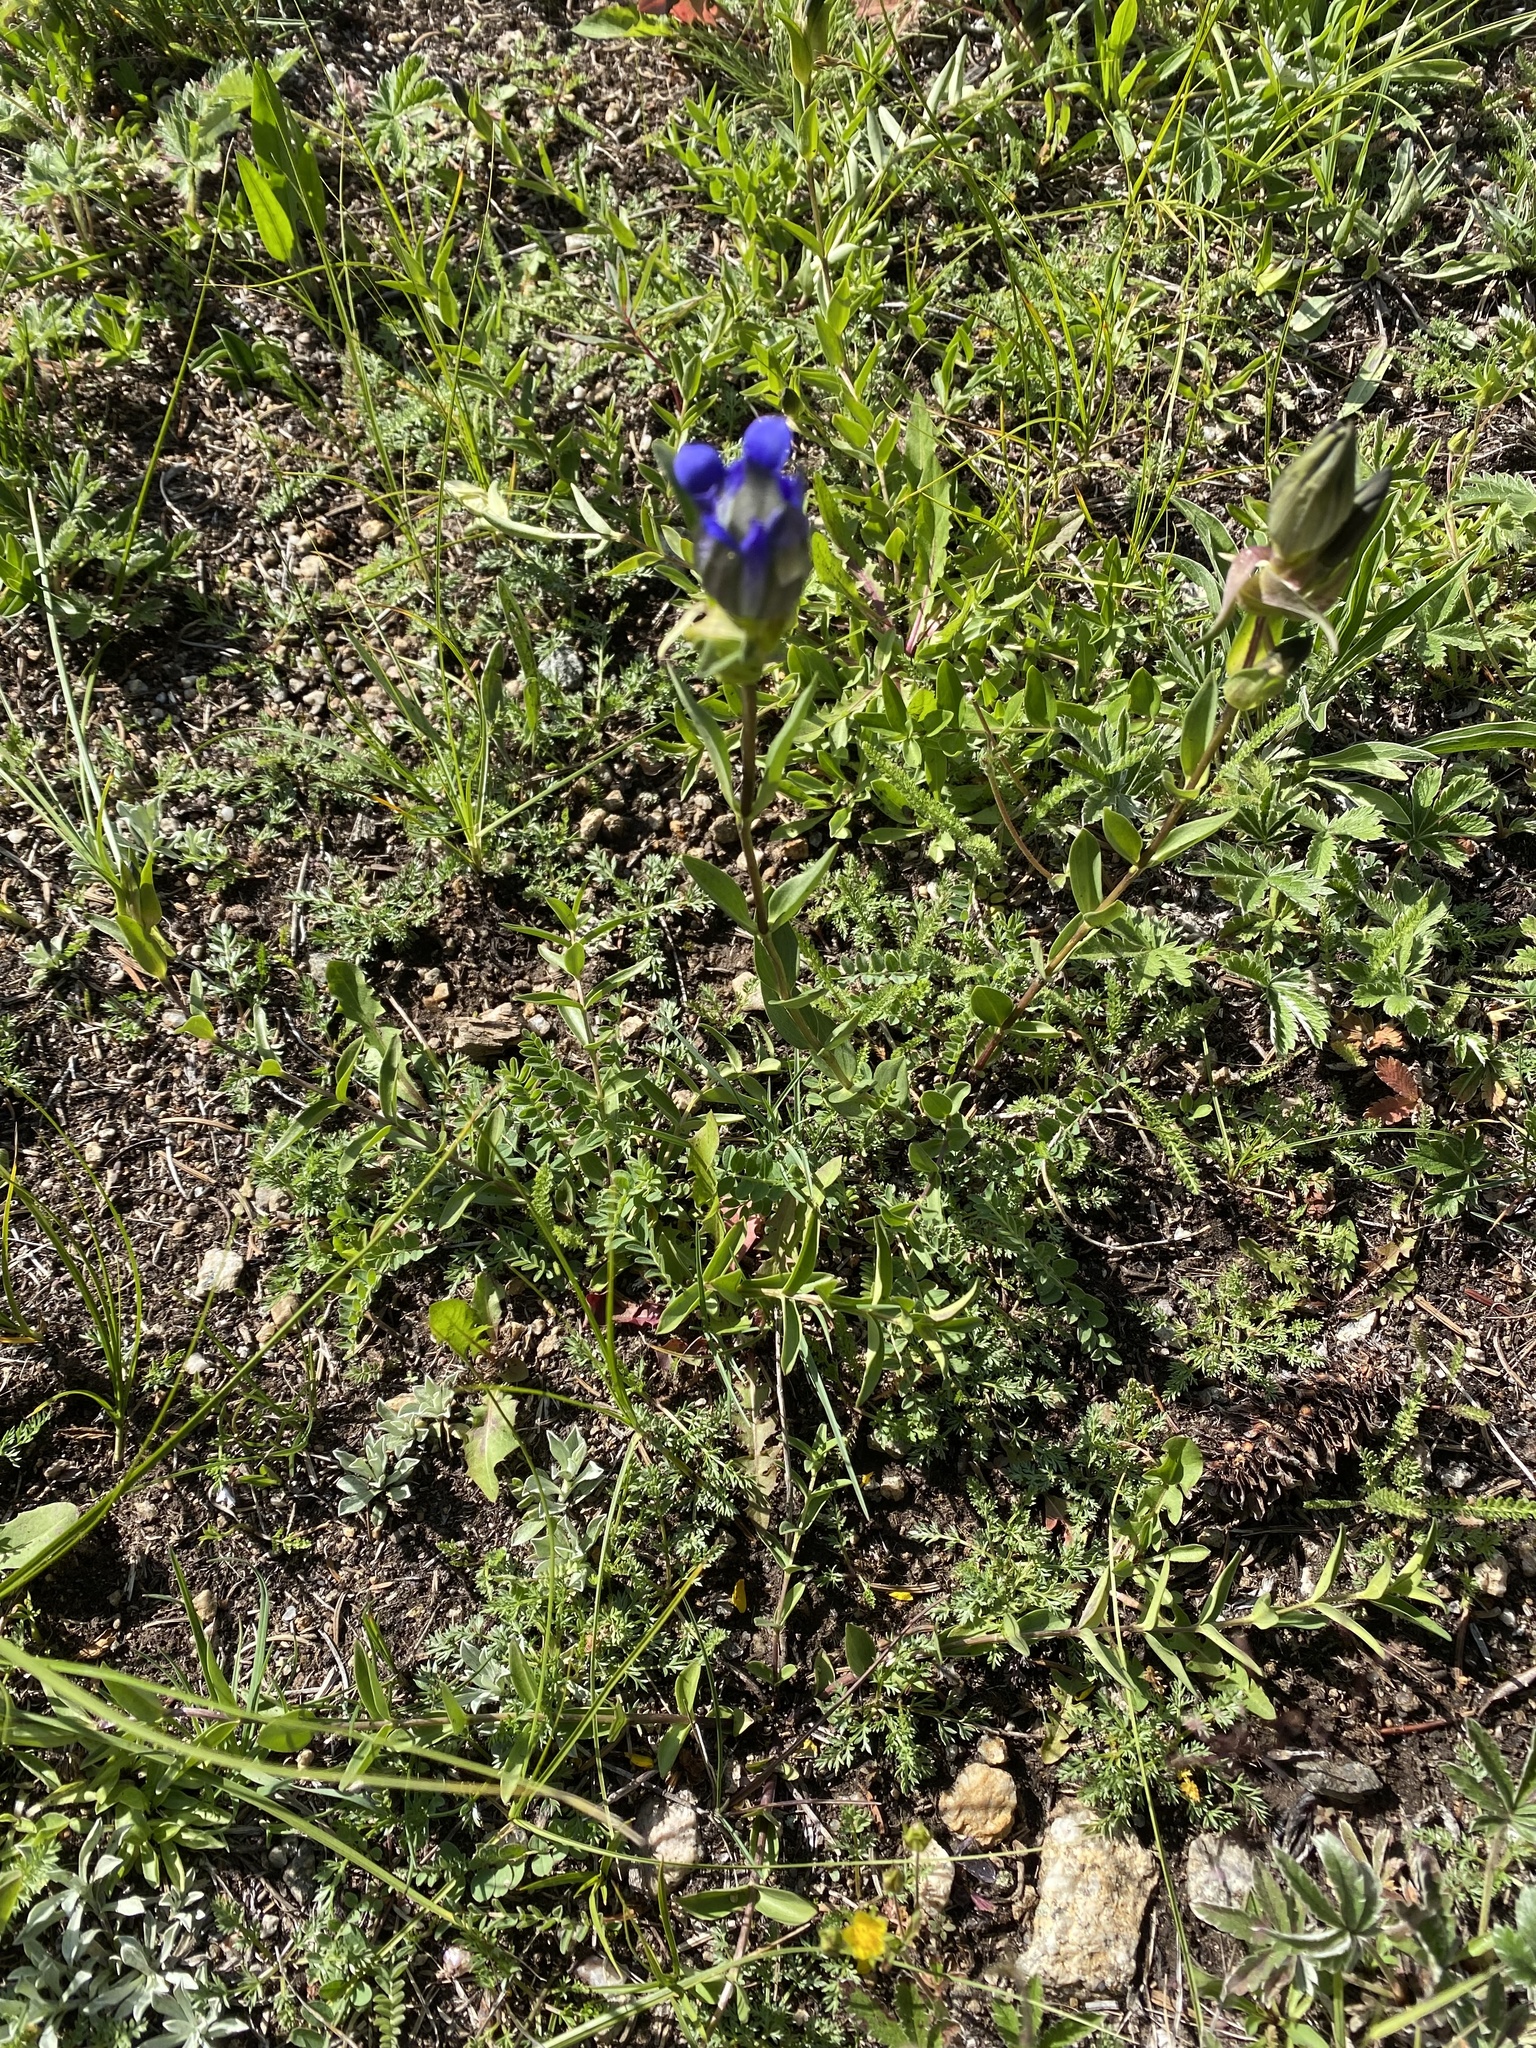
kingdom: Plantae
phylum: Tracheophyta
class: Magnoliopsida
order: Gentianales
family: Gentianaceae
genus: Gentiana
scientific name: Gentiana parryi
